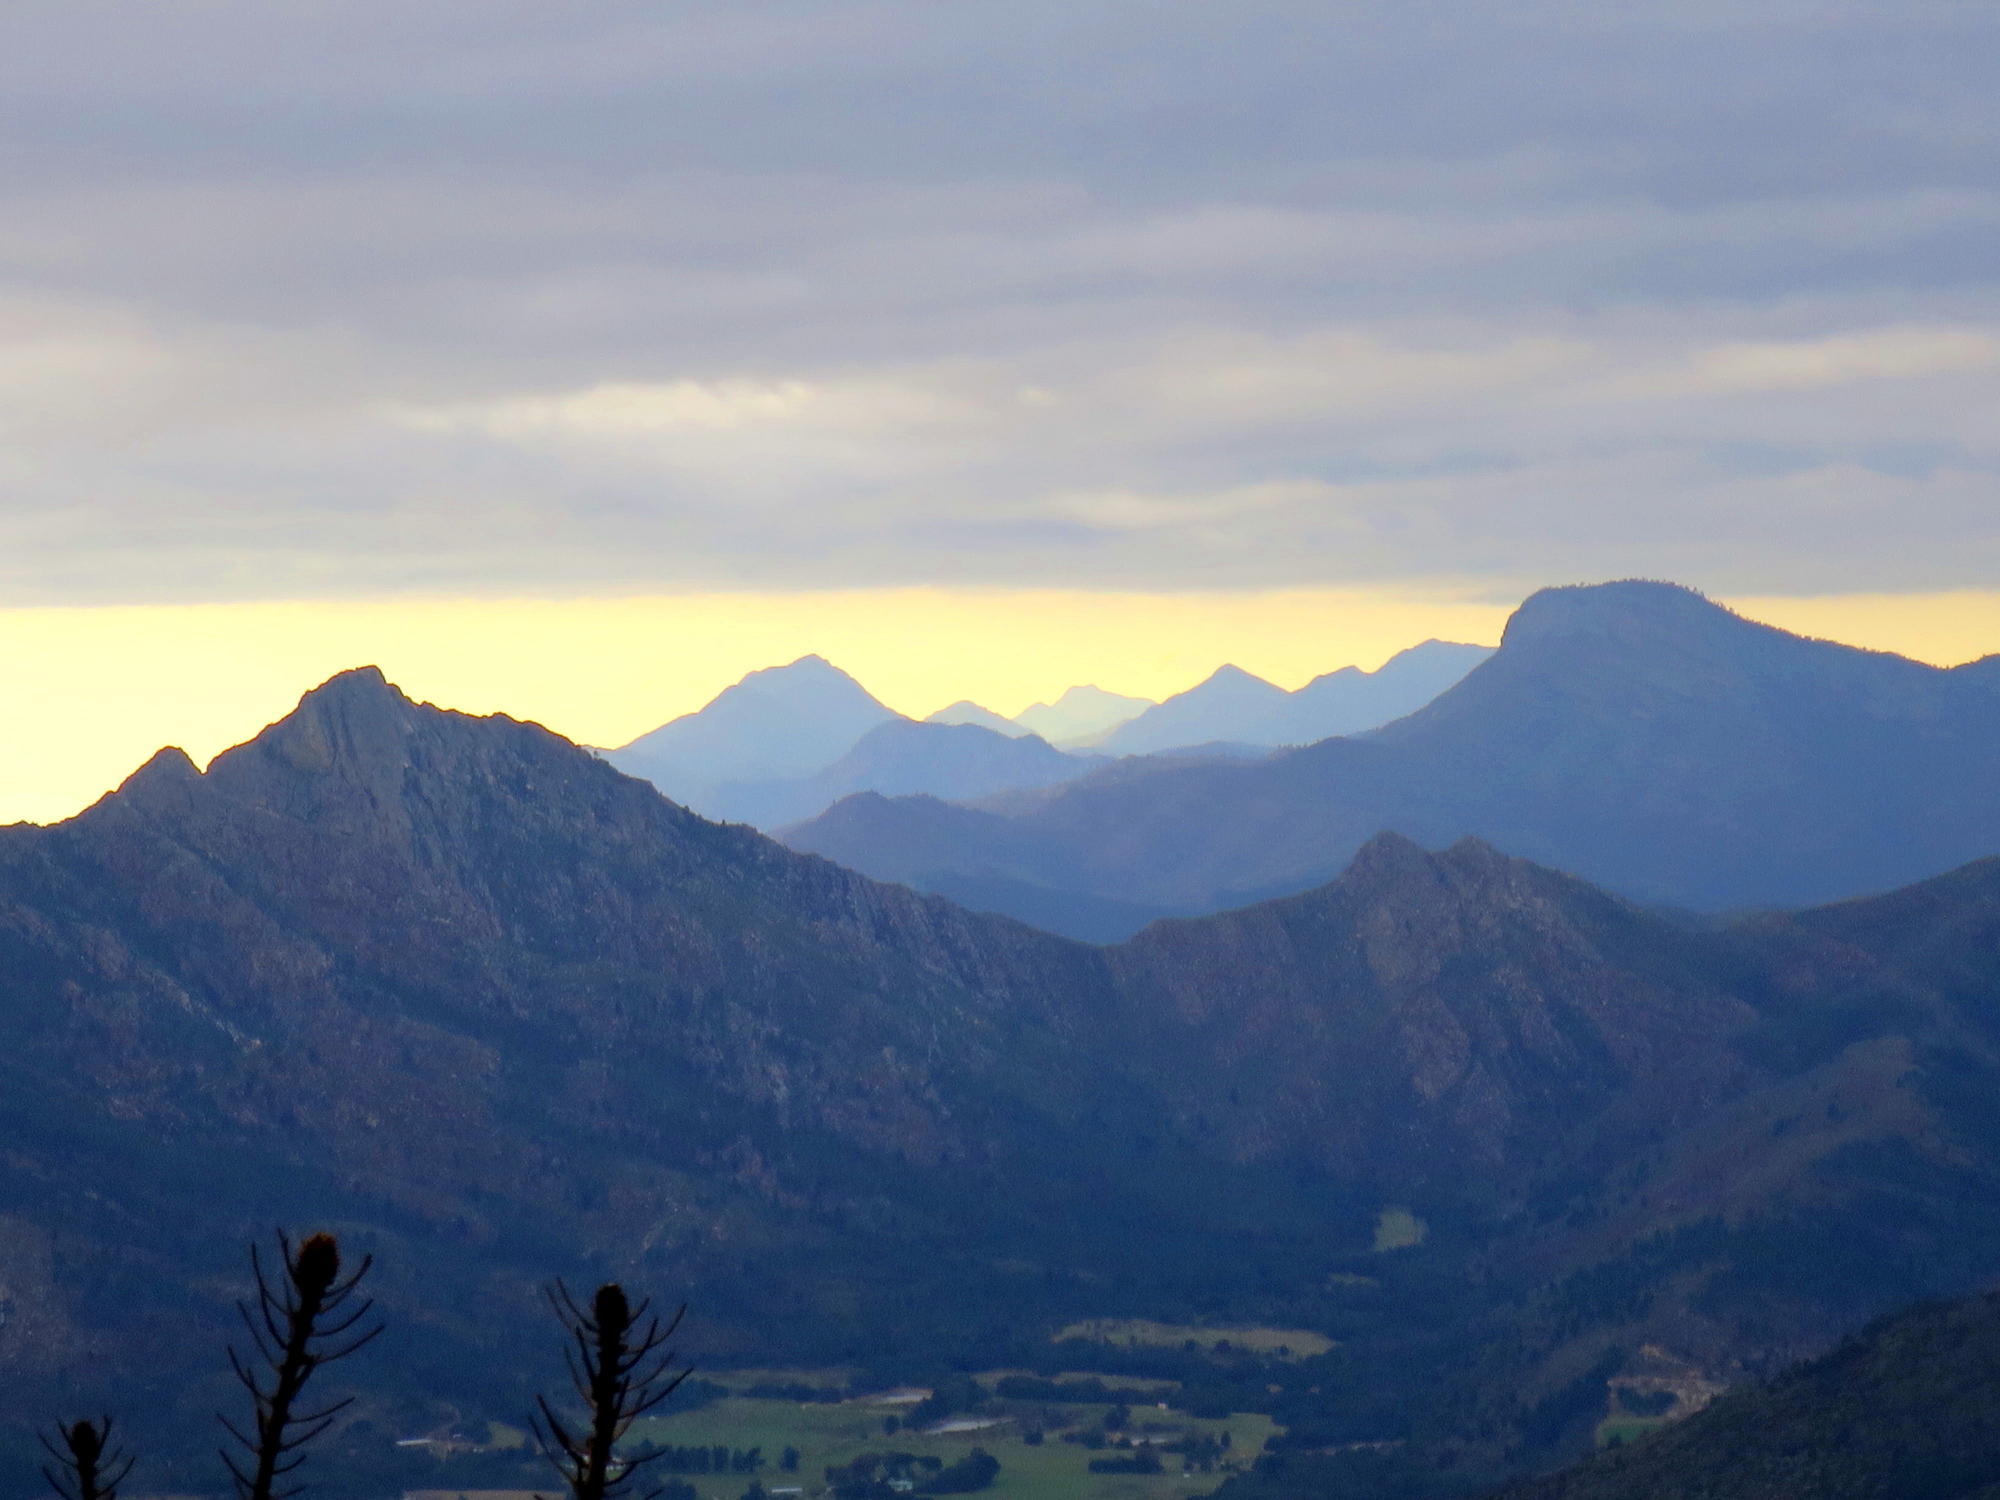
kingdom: Plantae
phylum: Tracheophyta
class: Magnoliopsida
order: Fabales
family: Fabaceae
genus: Acacia
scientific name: Acacia mearnsii
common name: Black wattle
